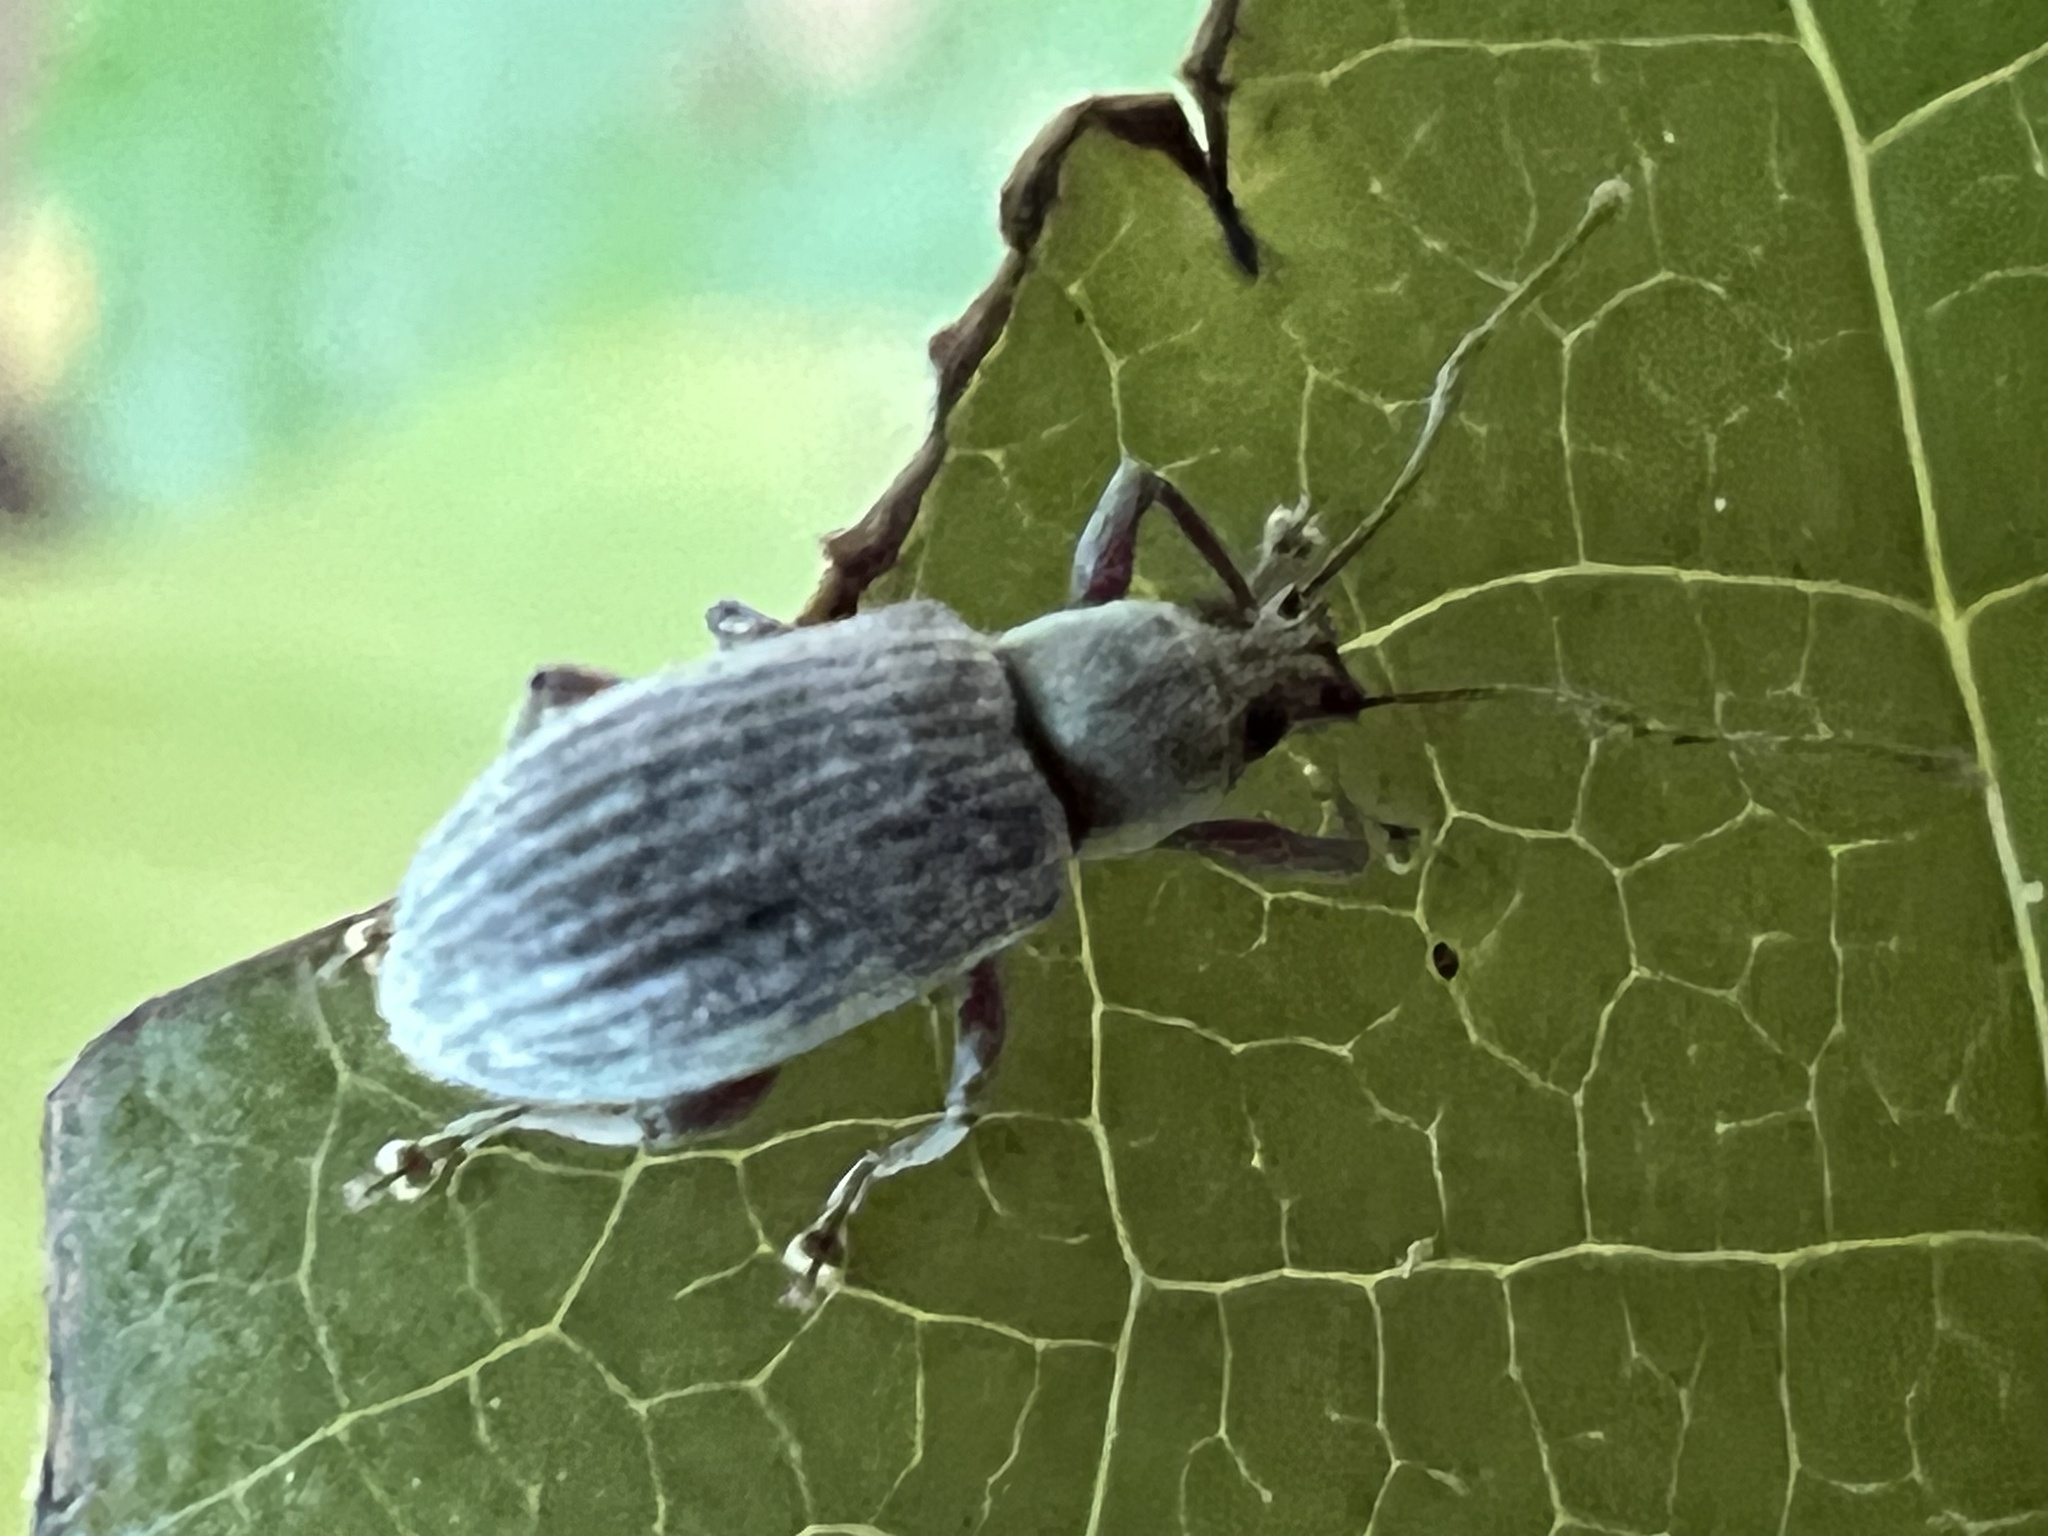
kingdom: Animalia
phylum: Arthropoda
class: Insecta
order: Coleoptera
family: Curculionidae
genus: Cyrtepistomus
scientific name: Cyrtepistomus castaneus
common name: Weevil
